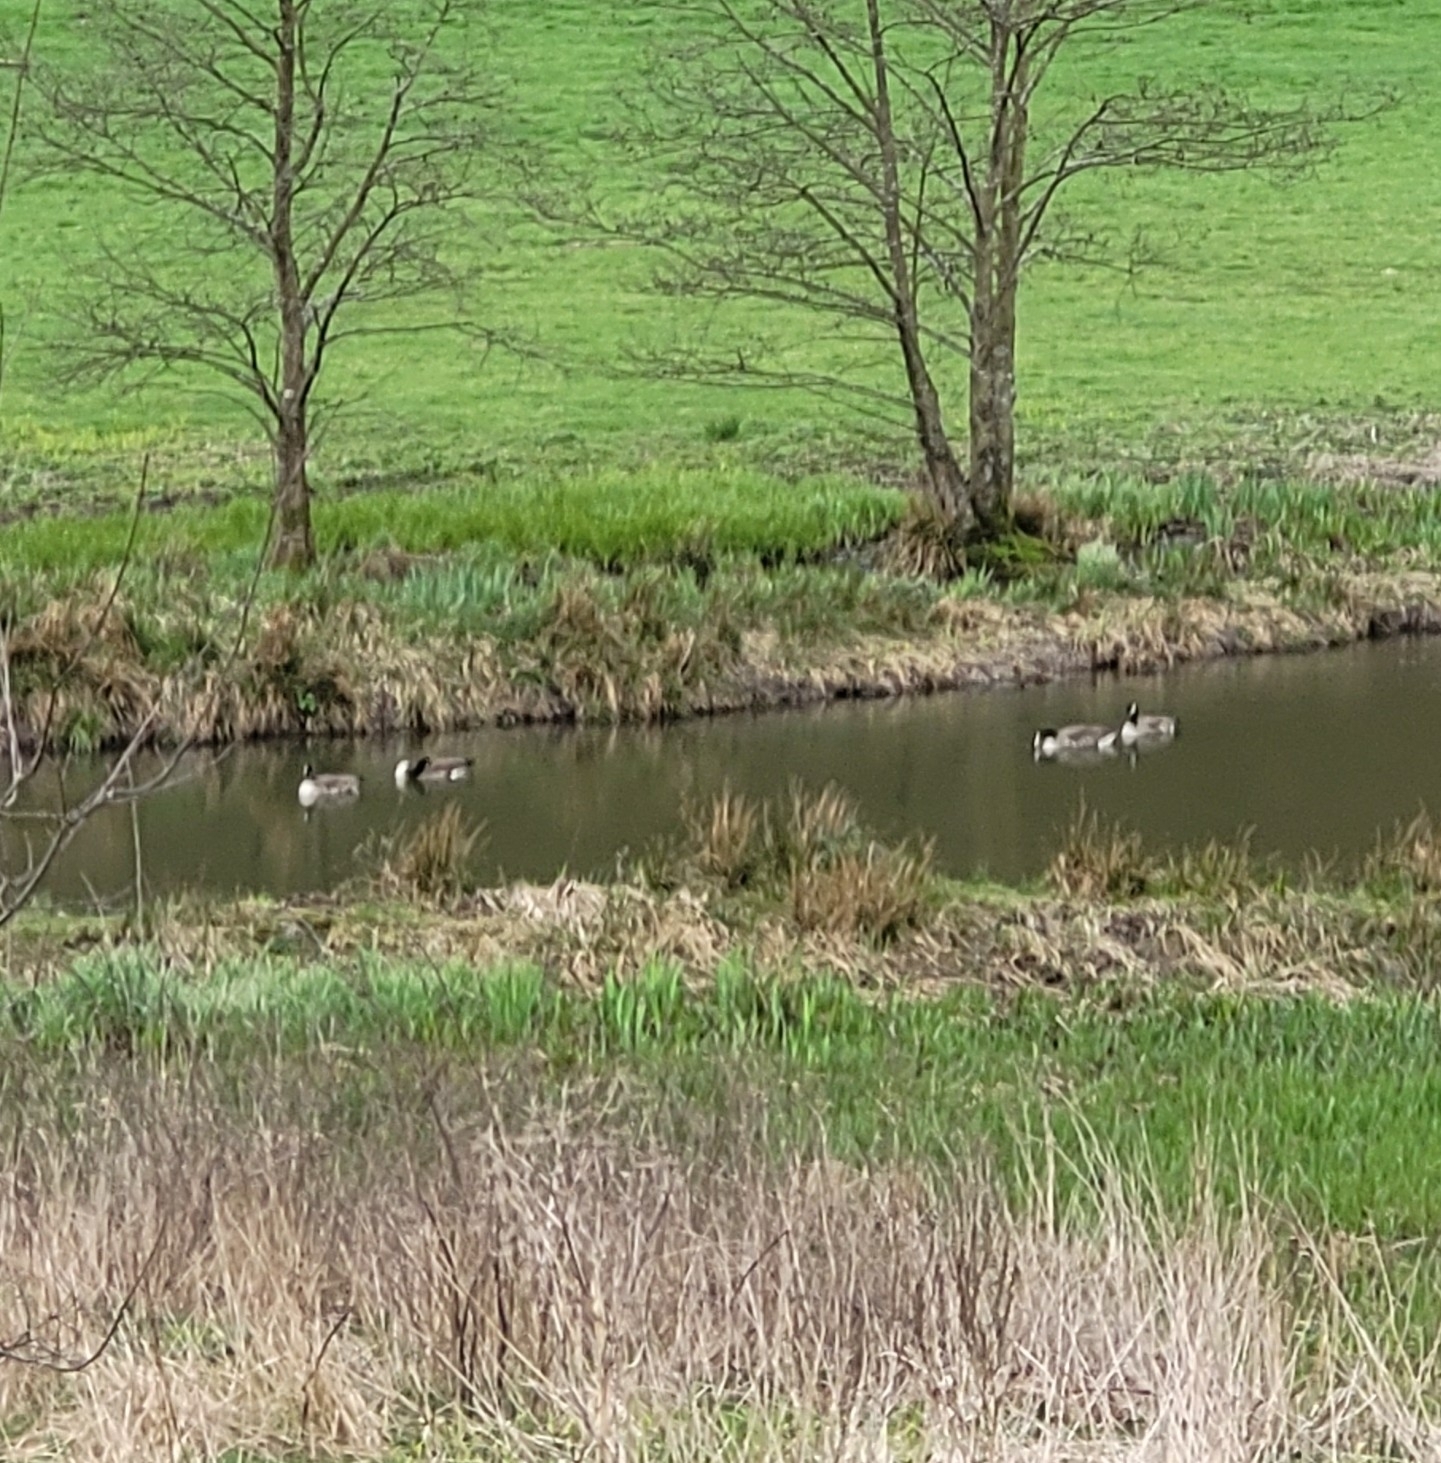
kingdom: Animalia
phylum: Chordata
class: Aves
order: Anseriformes
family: Anatidae
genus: Branta
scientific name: Branta canadensis
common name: Canada goose
